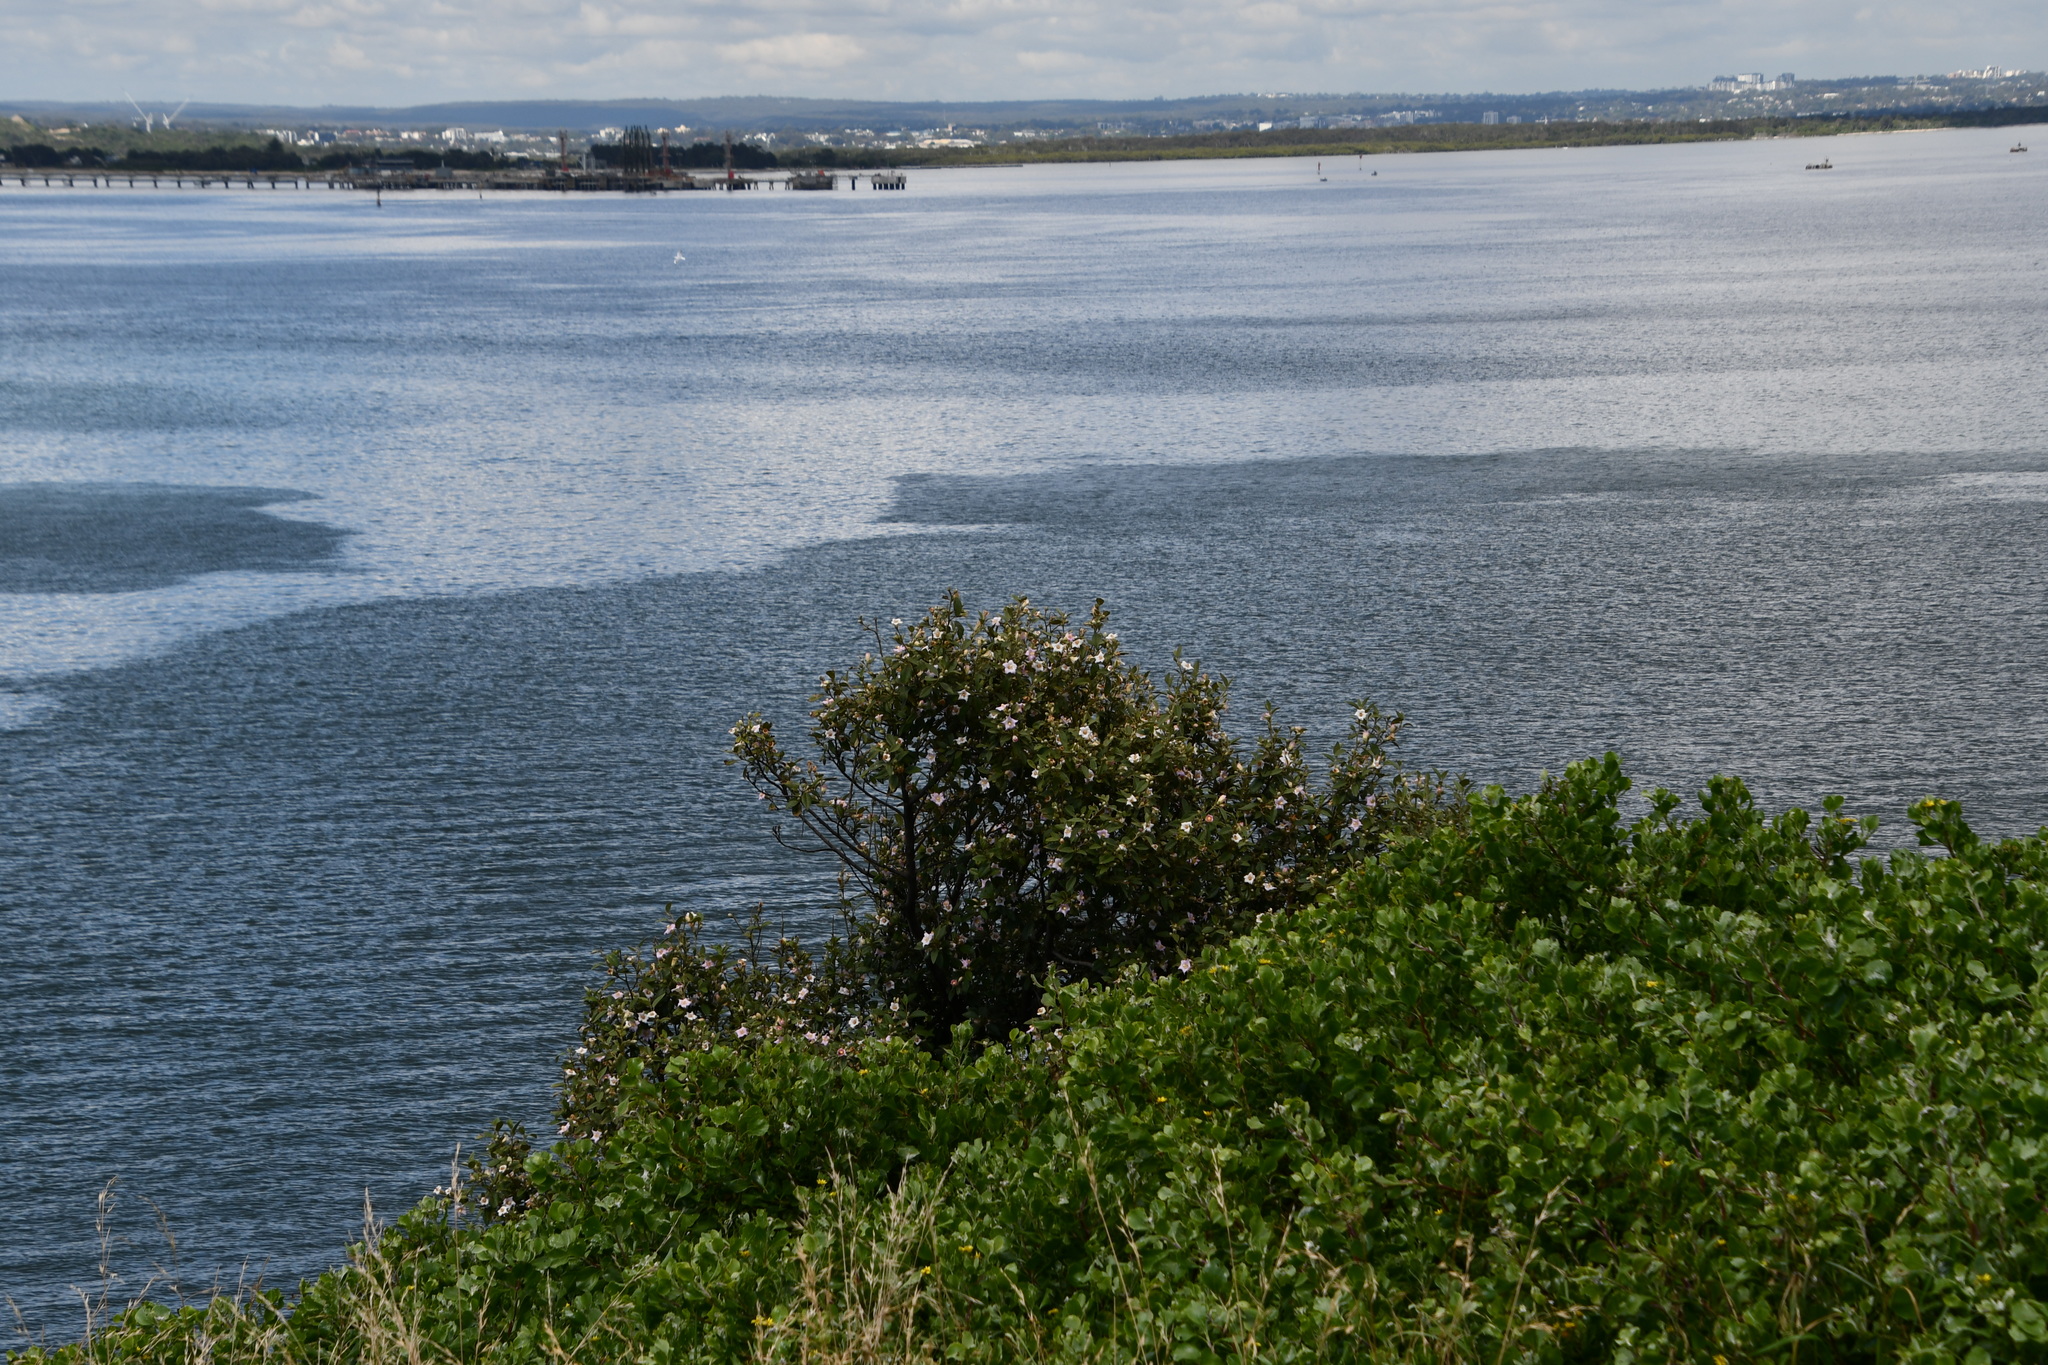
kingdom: Plantae
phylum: Tracheophyta
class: Magnoliopsida
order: Malvales
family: Malvaceae
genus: Lagunaria
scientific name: Lagunaria patersonia
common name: Cow itch tree
